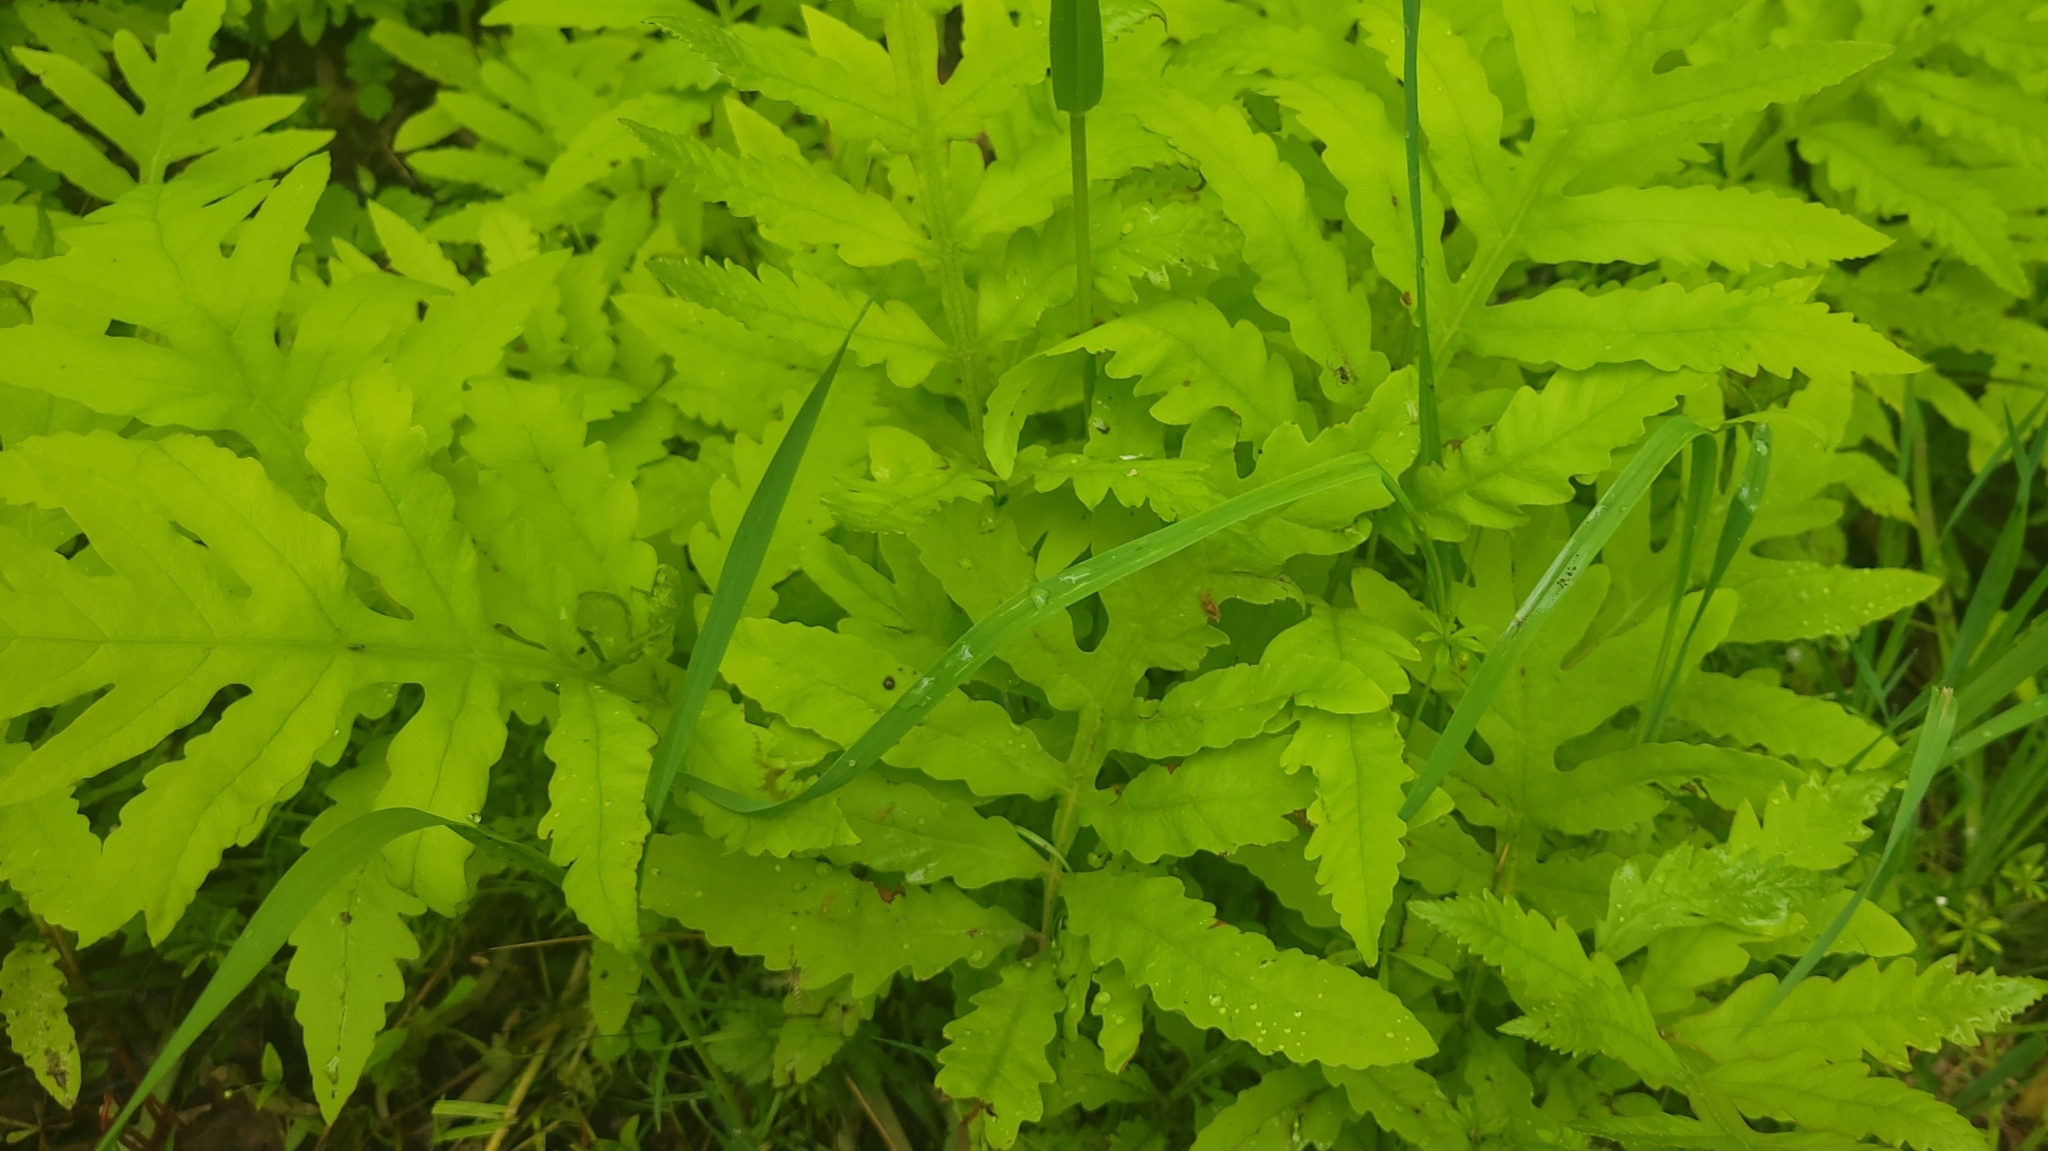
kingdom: Plantae
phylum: Tracheophyta
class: Polypodiopsida
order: Polypodiales
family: Onocleaceae
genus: Onoclea
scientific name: Onoclea sensibilis
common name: Sensitive fern
